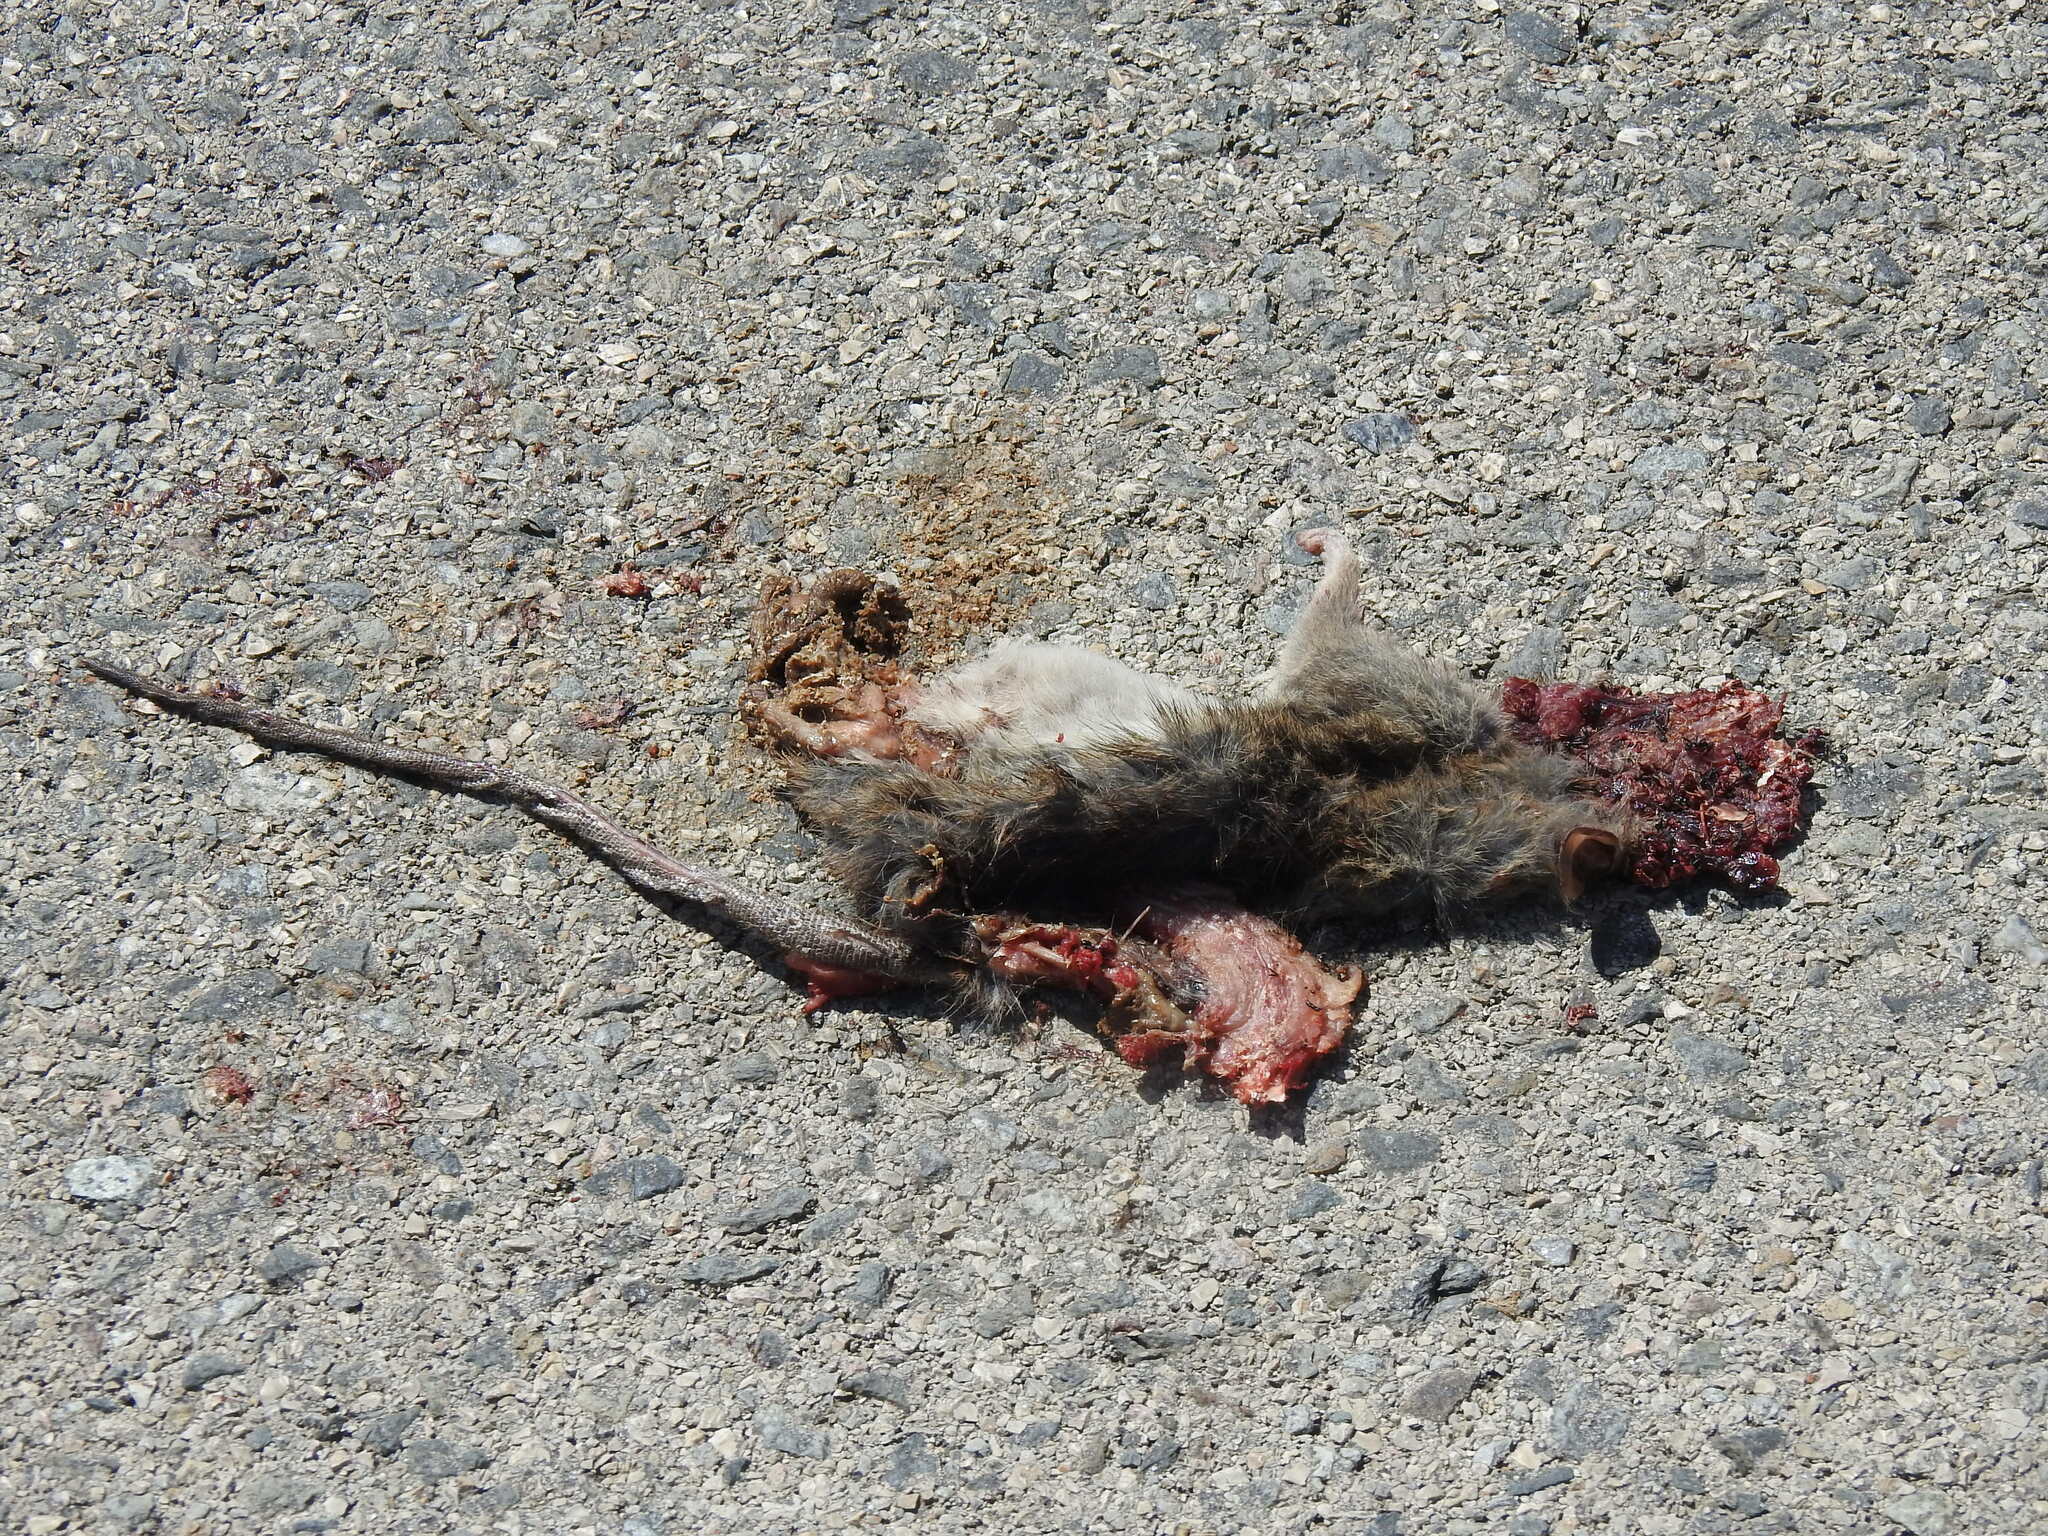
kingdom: Animalia
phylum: Chordata
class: Mammalia
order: Rodentia
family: Muridae
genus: Rattus
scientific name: Rattus rattus
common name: Black rat
